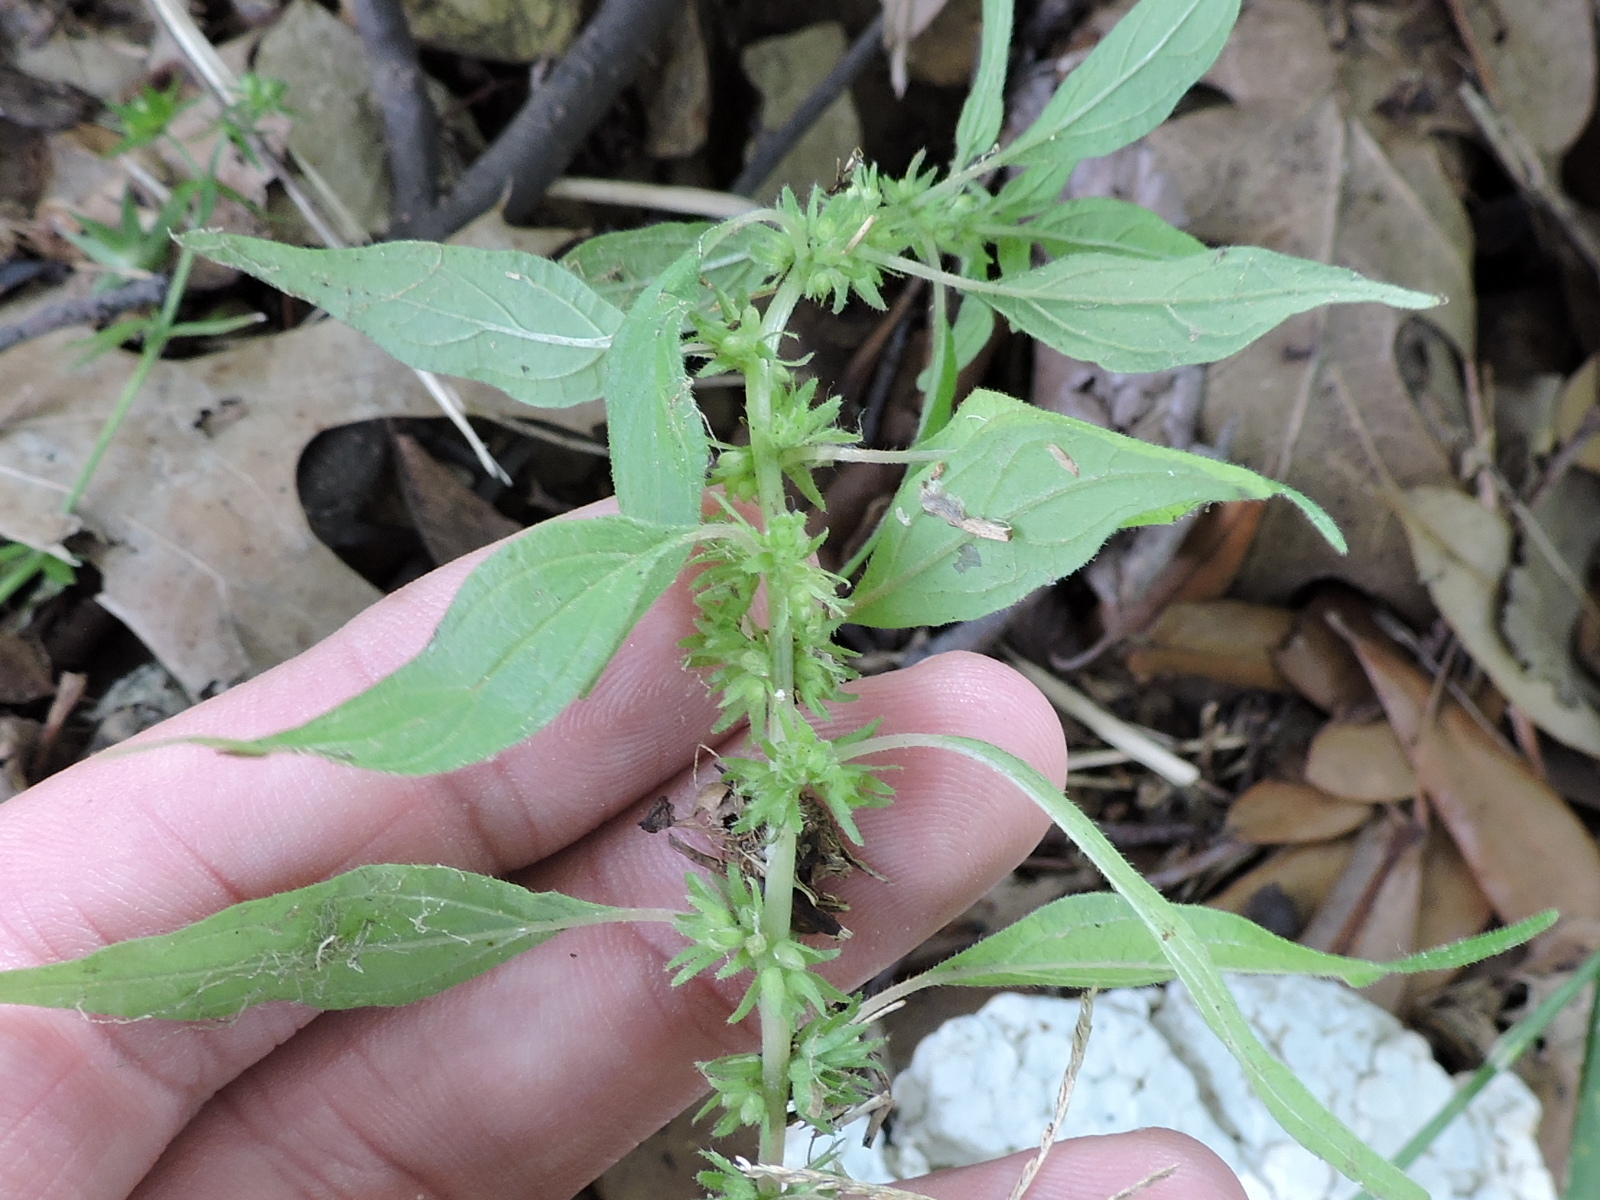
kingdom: Plantae
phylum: Tracheophyta
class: Magnoliopsida
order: Rosales
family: Urticaceae
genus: Parietaria
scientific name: Parietaria pensylvanica
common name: Pennsylvania pellitory
